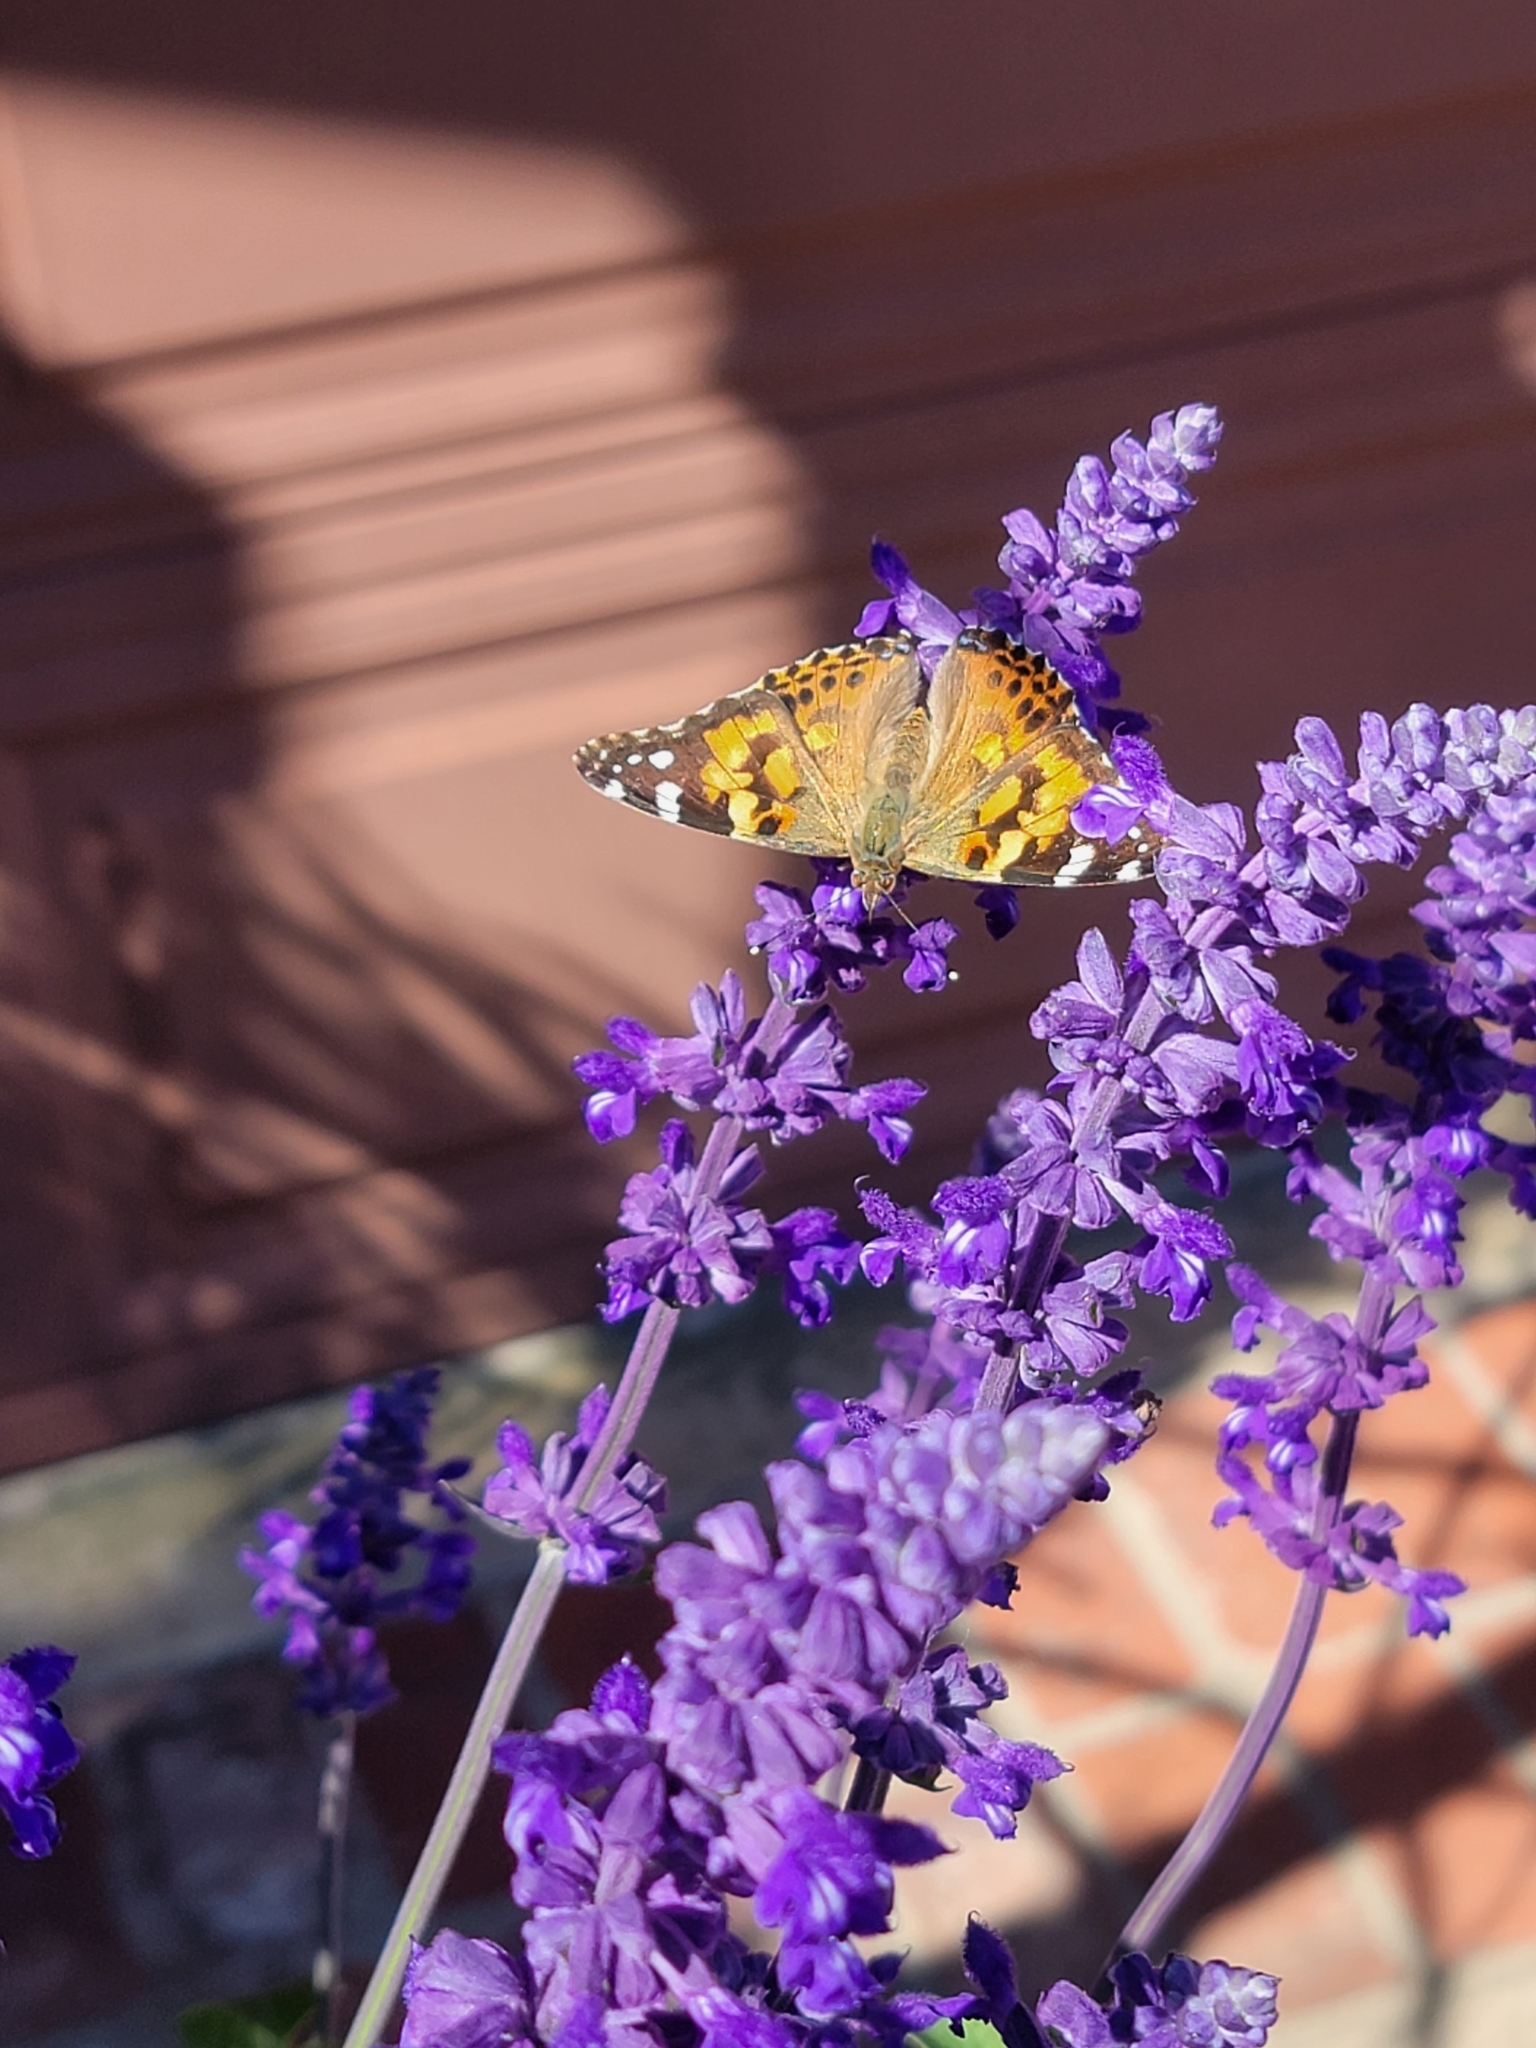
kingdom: Animalia
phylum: Arthropoda
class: Insecta
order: Lepidoptera
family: Nymphalidae
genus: Vanessa
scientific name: Vanessa cardui
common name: Painted lady
